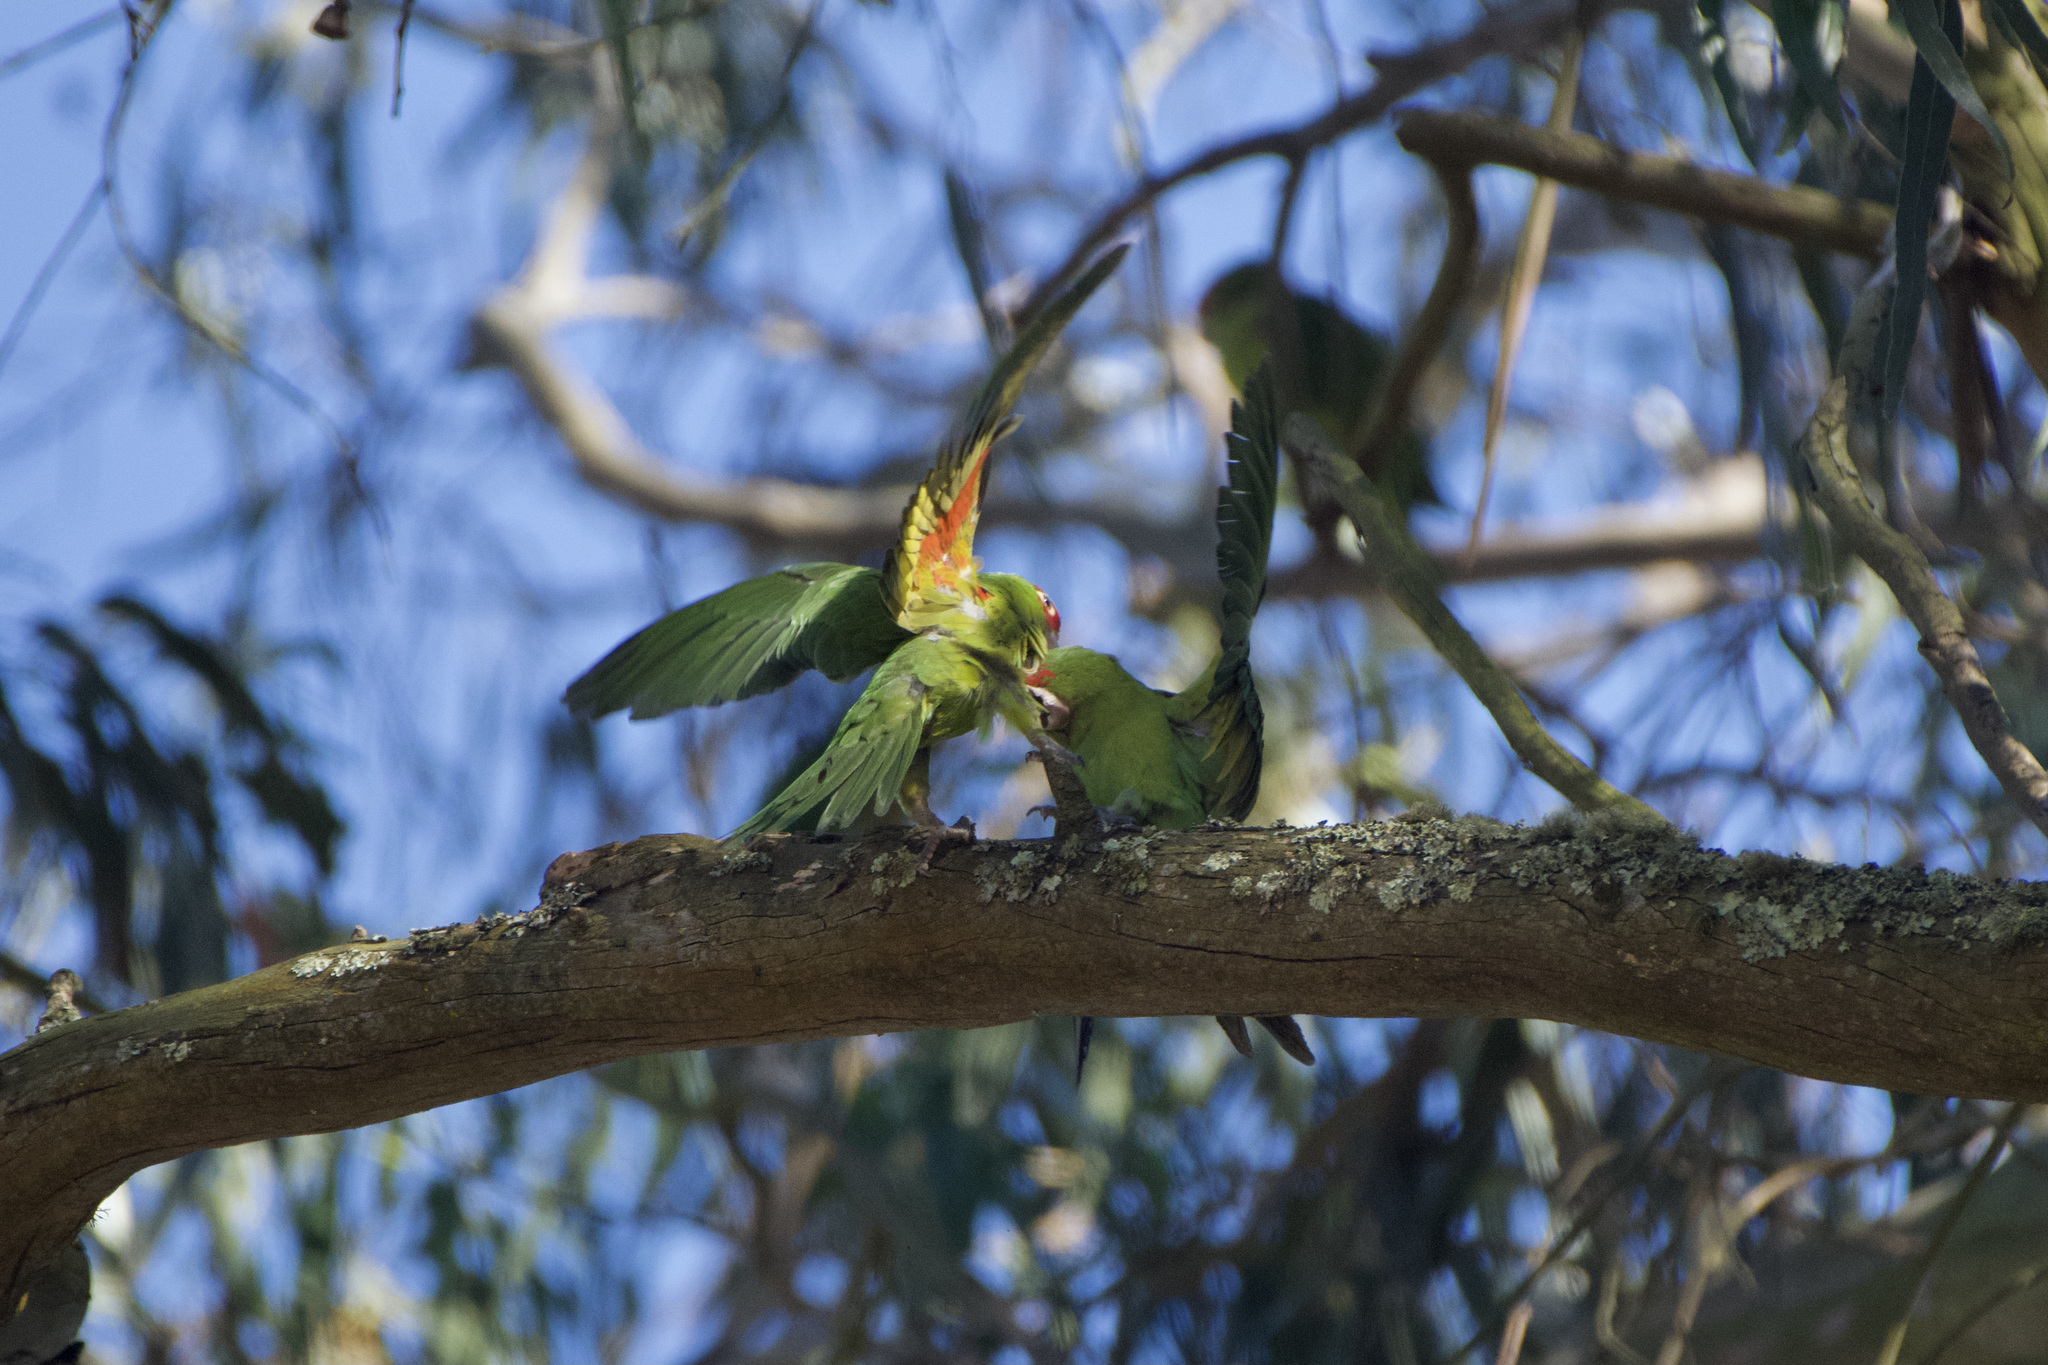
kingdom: Animalia
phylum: Chordata
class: Aves
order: Psittaciformes
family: Psittacidae
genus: Aratinga
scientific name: Aratinga erythrogenys
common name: Red-masked parakeet
